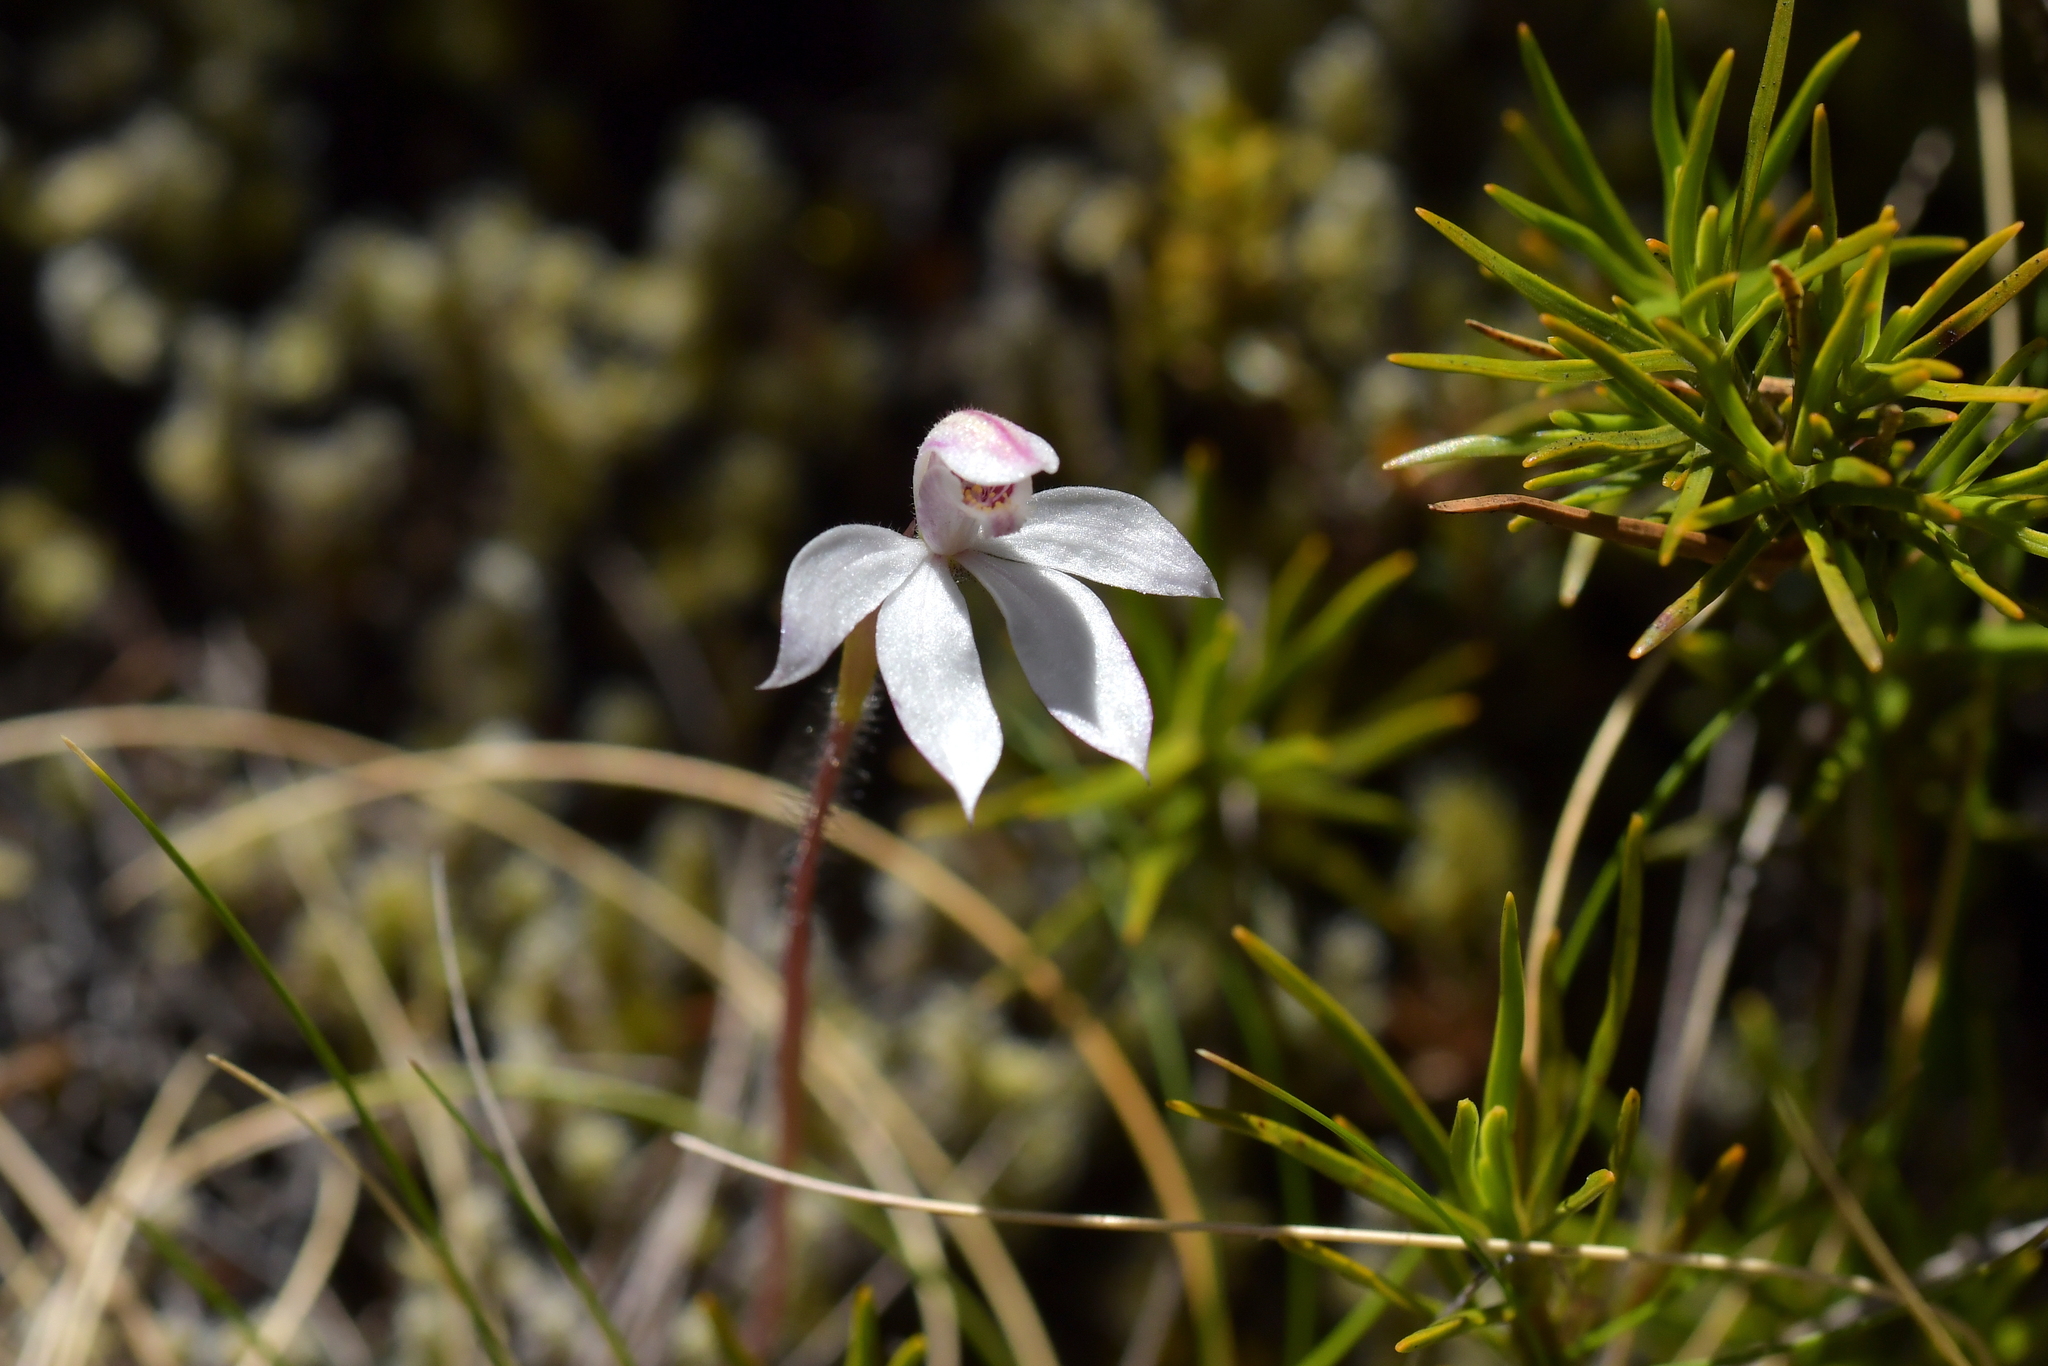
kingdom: Plantae
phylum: Tracheophyta
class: Liliopsida
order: Asparagales
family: Orchidaceae
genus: Caladenia
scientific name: Caladenia lyallii
